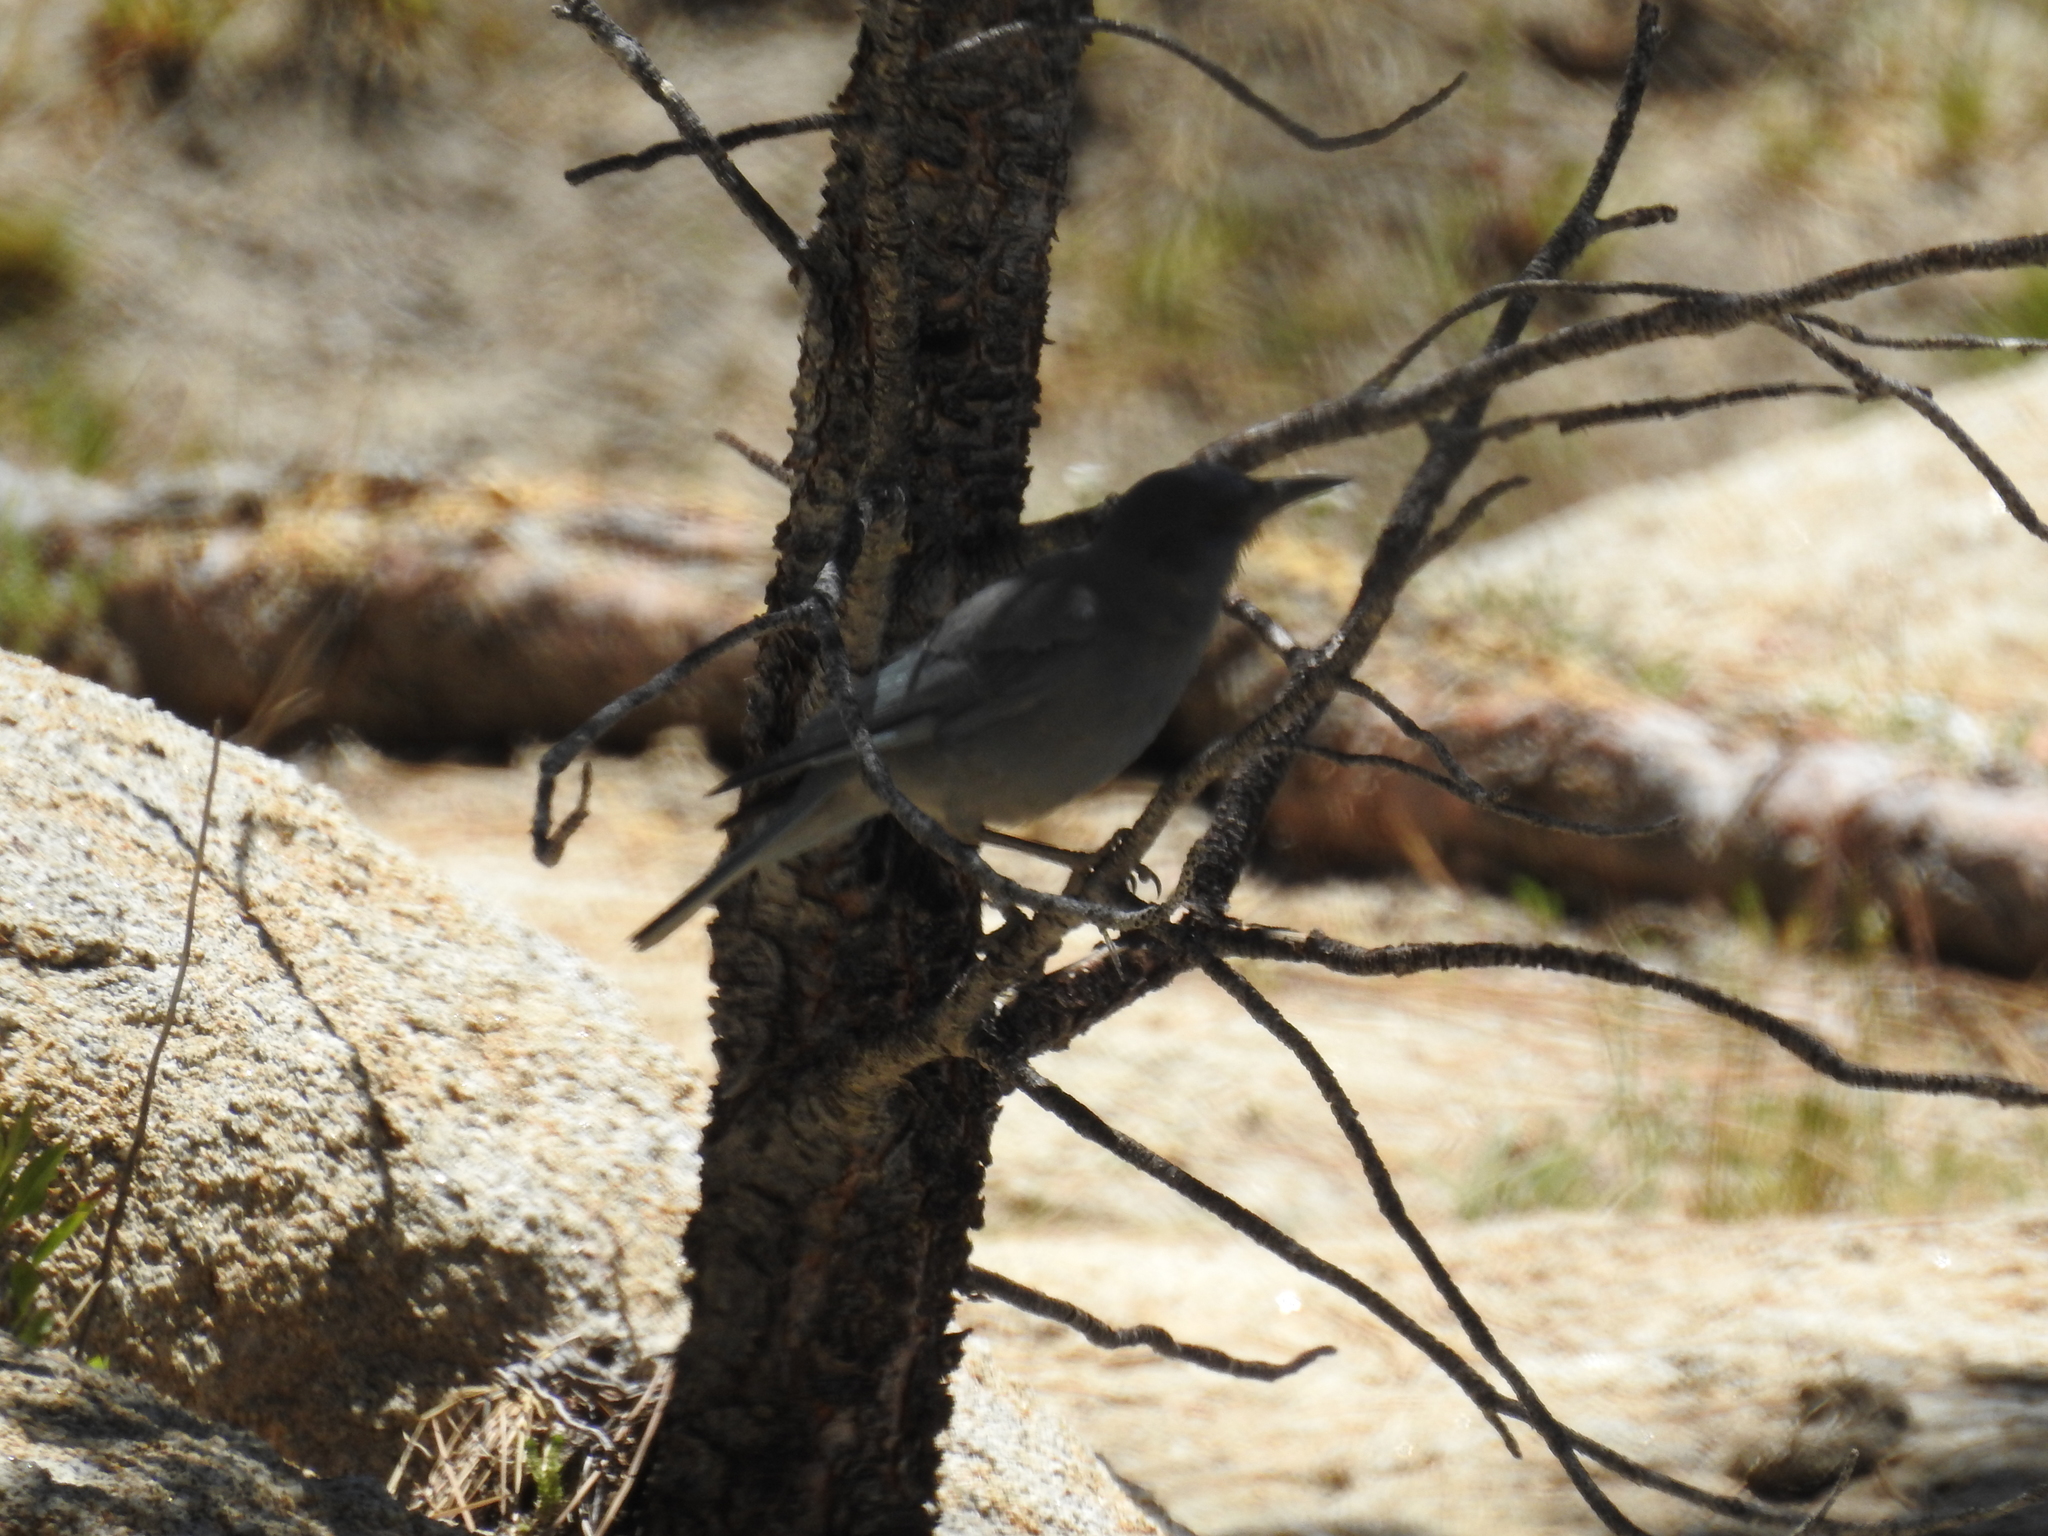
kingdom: Animalia
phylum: Chordata
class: Aves
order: Passeriformes
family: Corvidae
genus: Gymnorhinus
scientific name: Gymnorhinus cyanocephalus
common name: Pinyon jay
